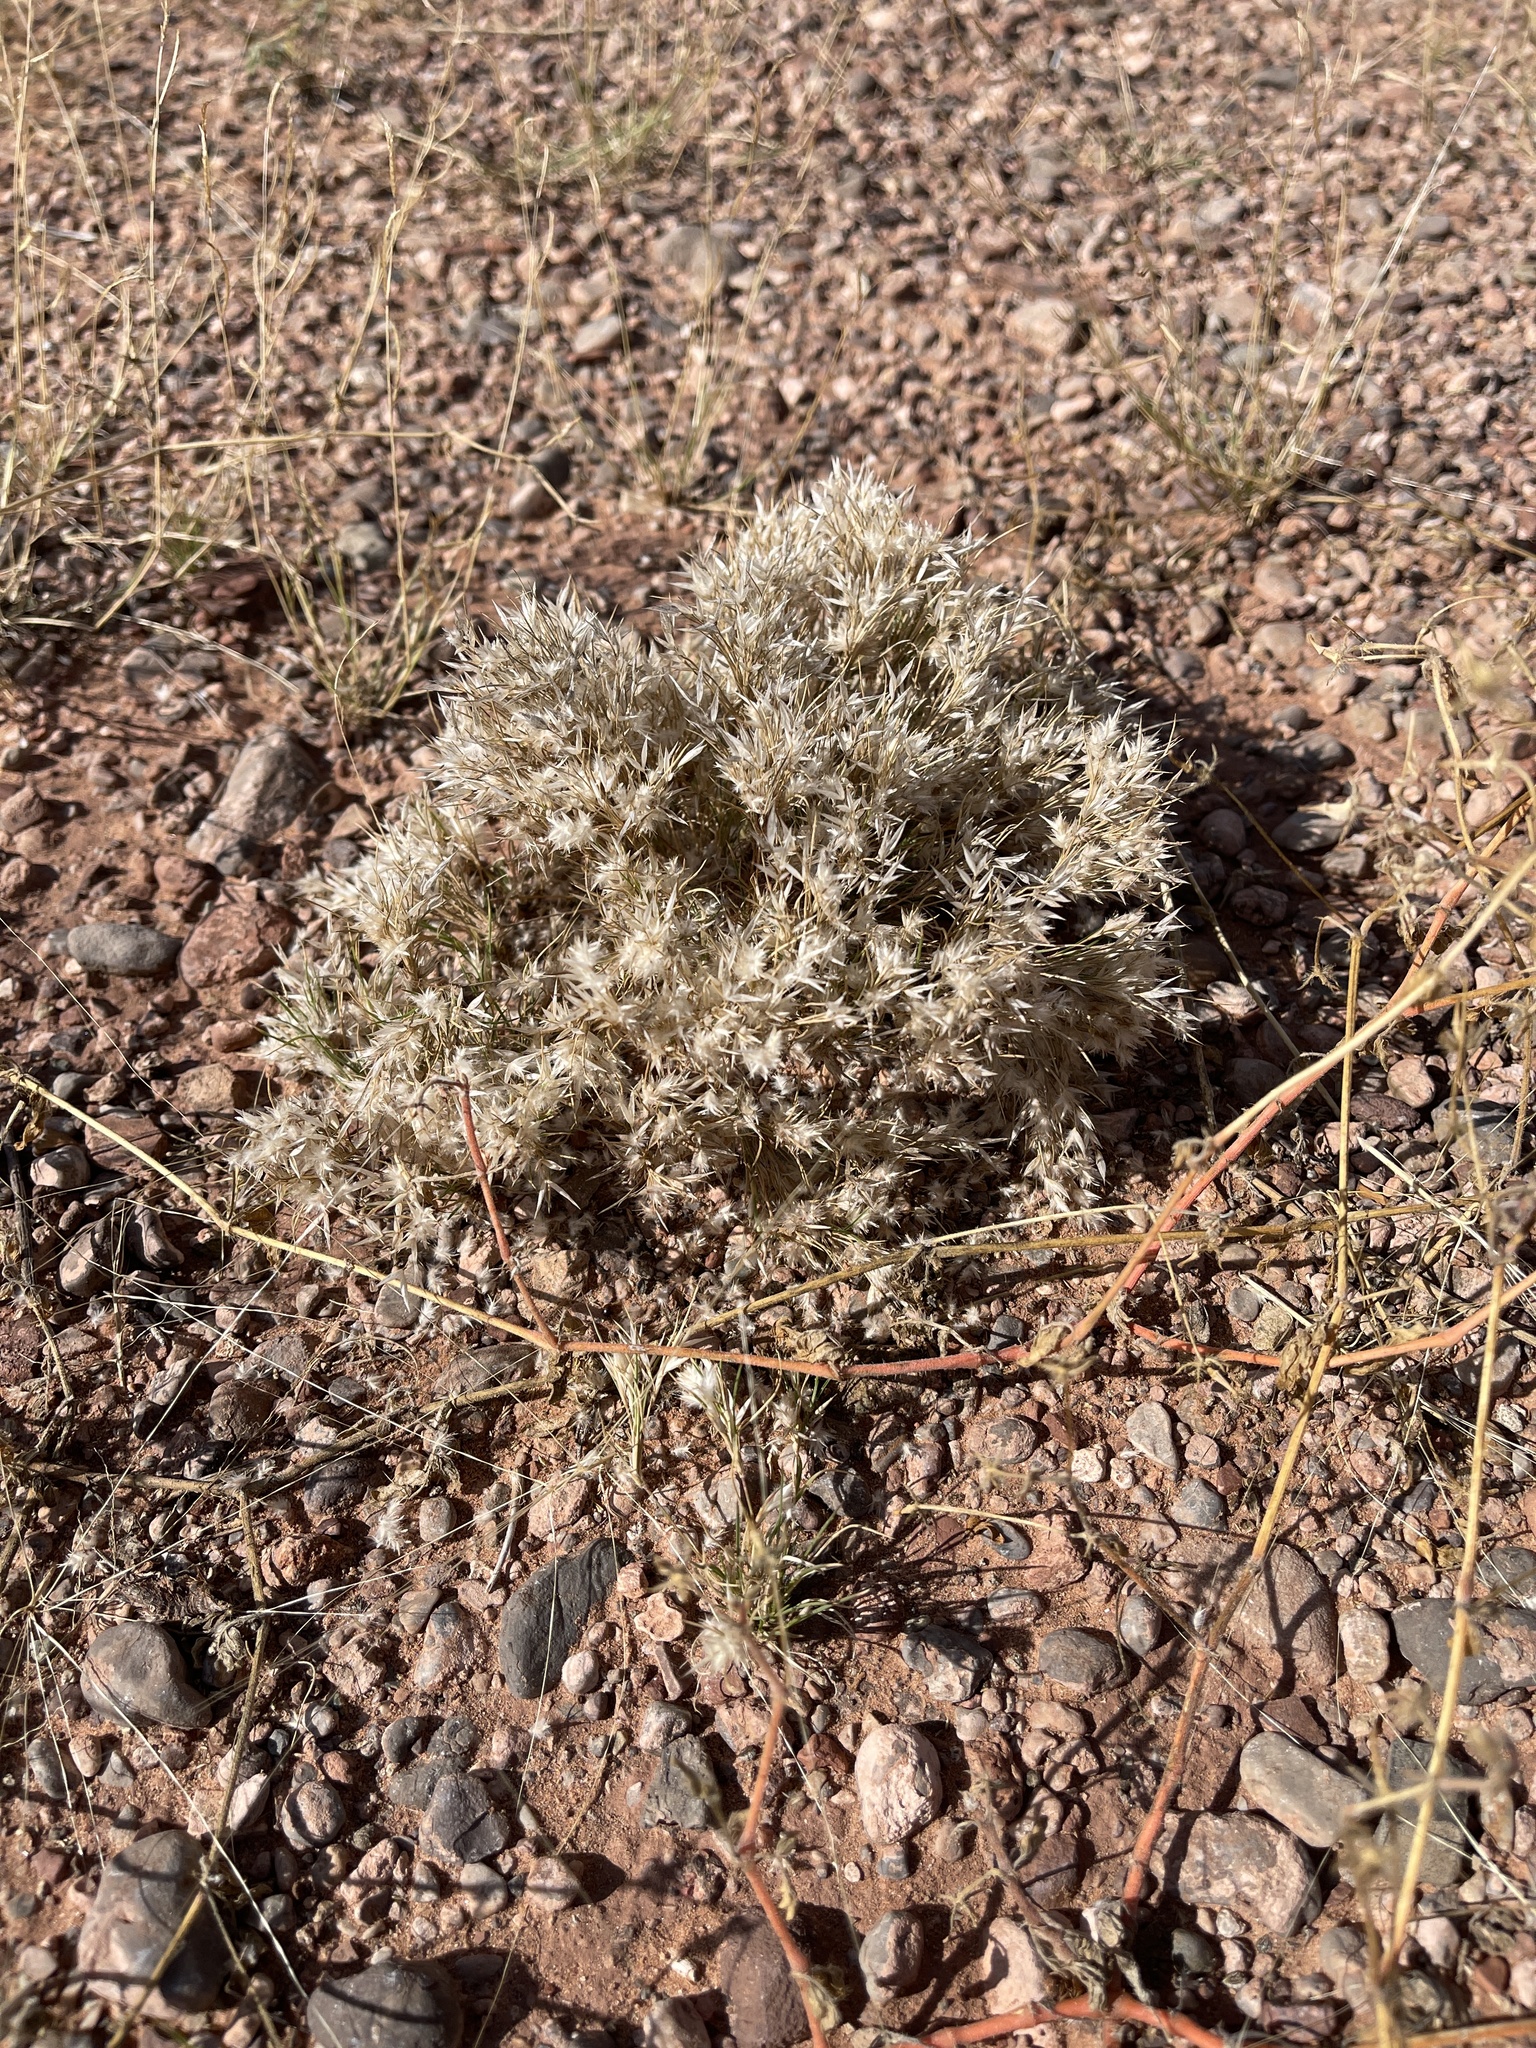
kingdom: Plantae
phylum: Tracheophyta
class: Liliopsida
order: Poales
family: Poaceae
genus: Dasyochloa
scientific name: Dasyochloa pulchella
